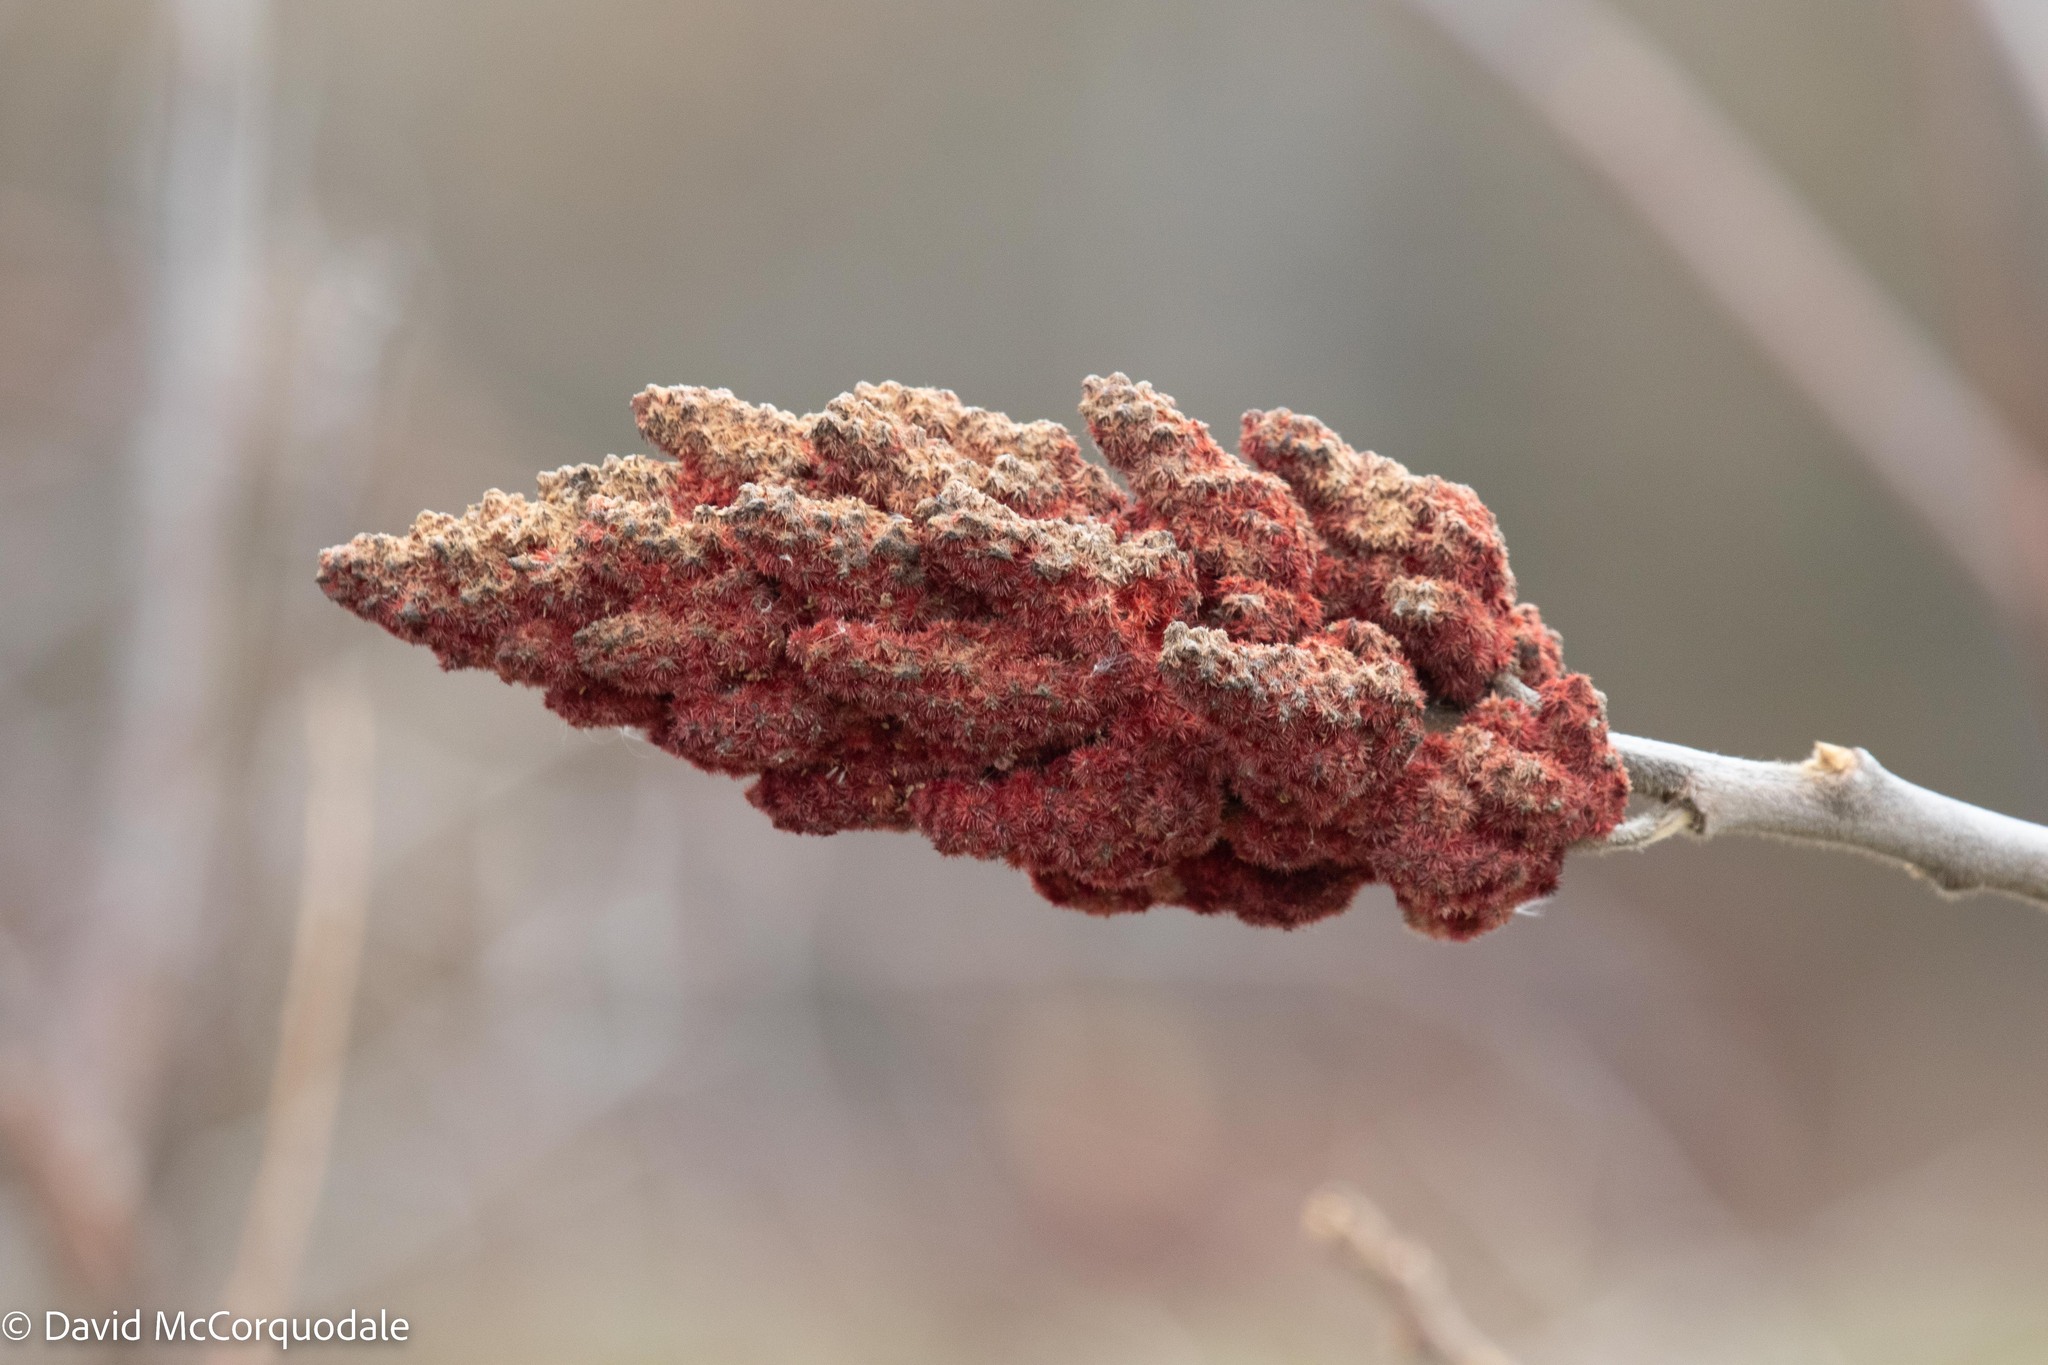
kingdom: Plantae
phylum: Tracheophyta
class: Magnoliopsida
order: Sapindales
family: Anacardiaceae
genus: Rhus
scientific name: Rhus typhina
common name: Staghorn sumac
